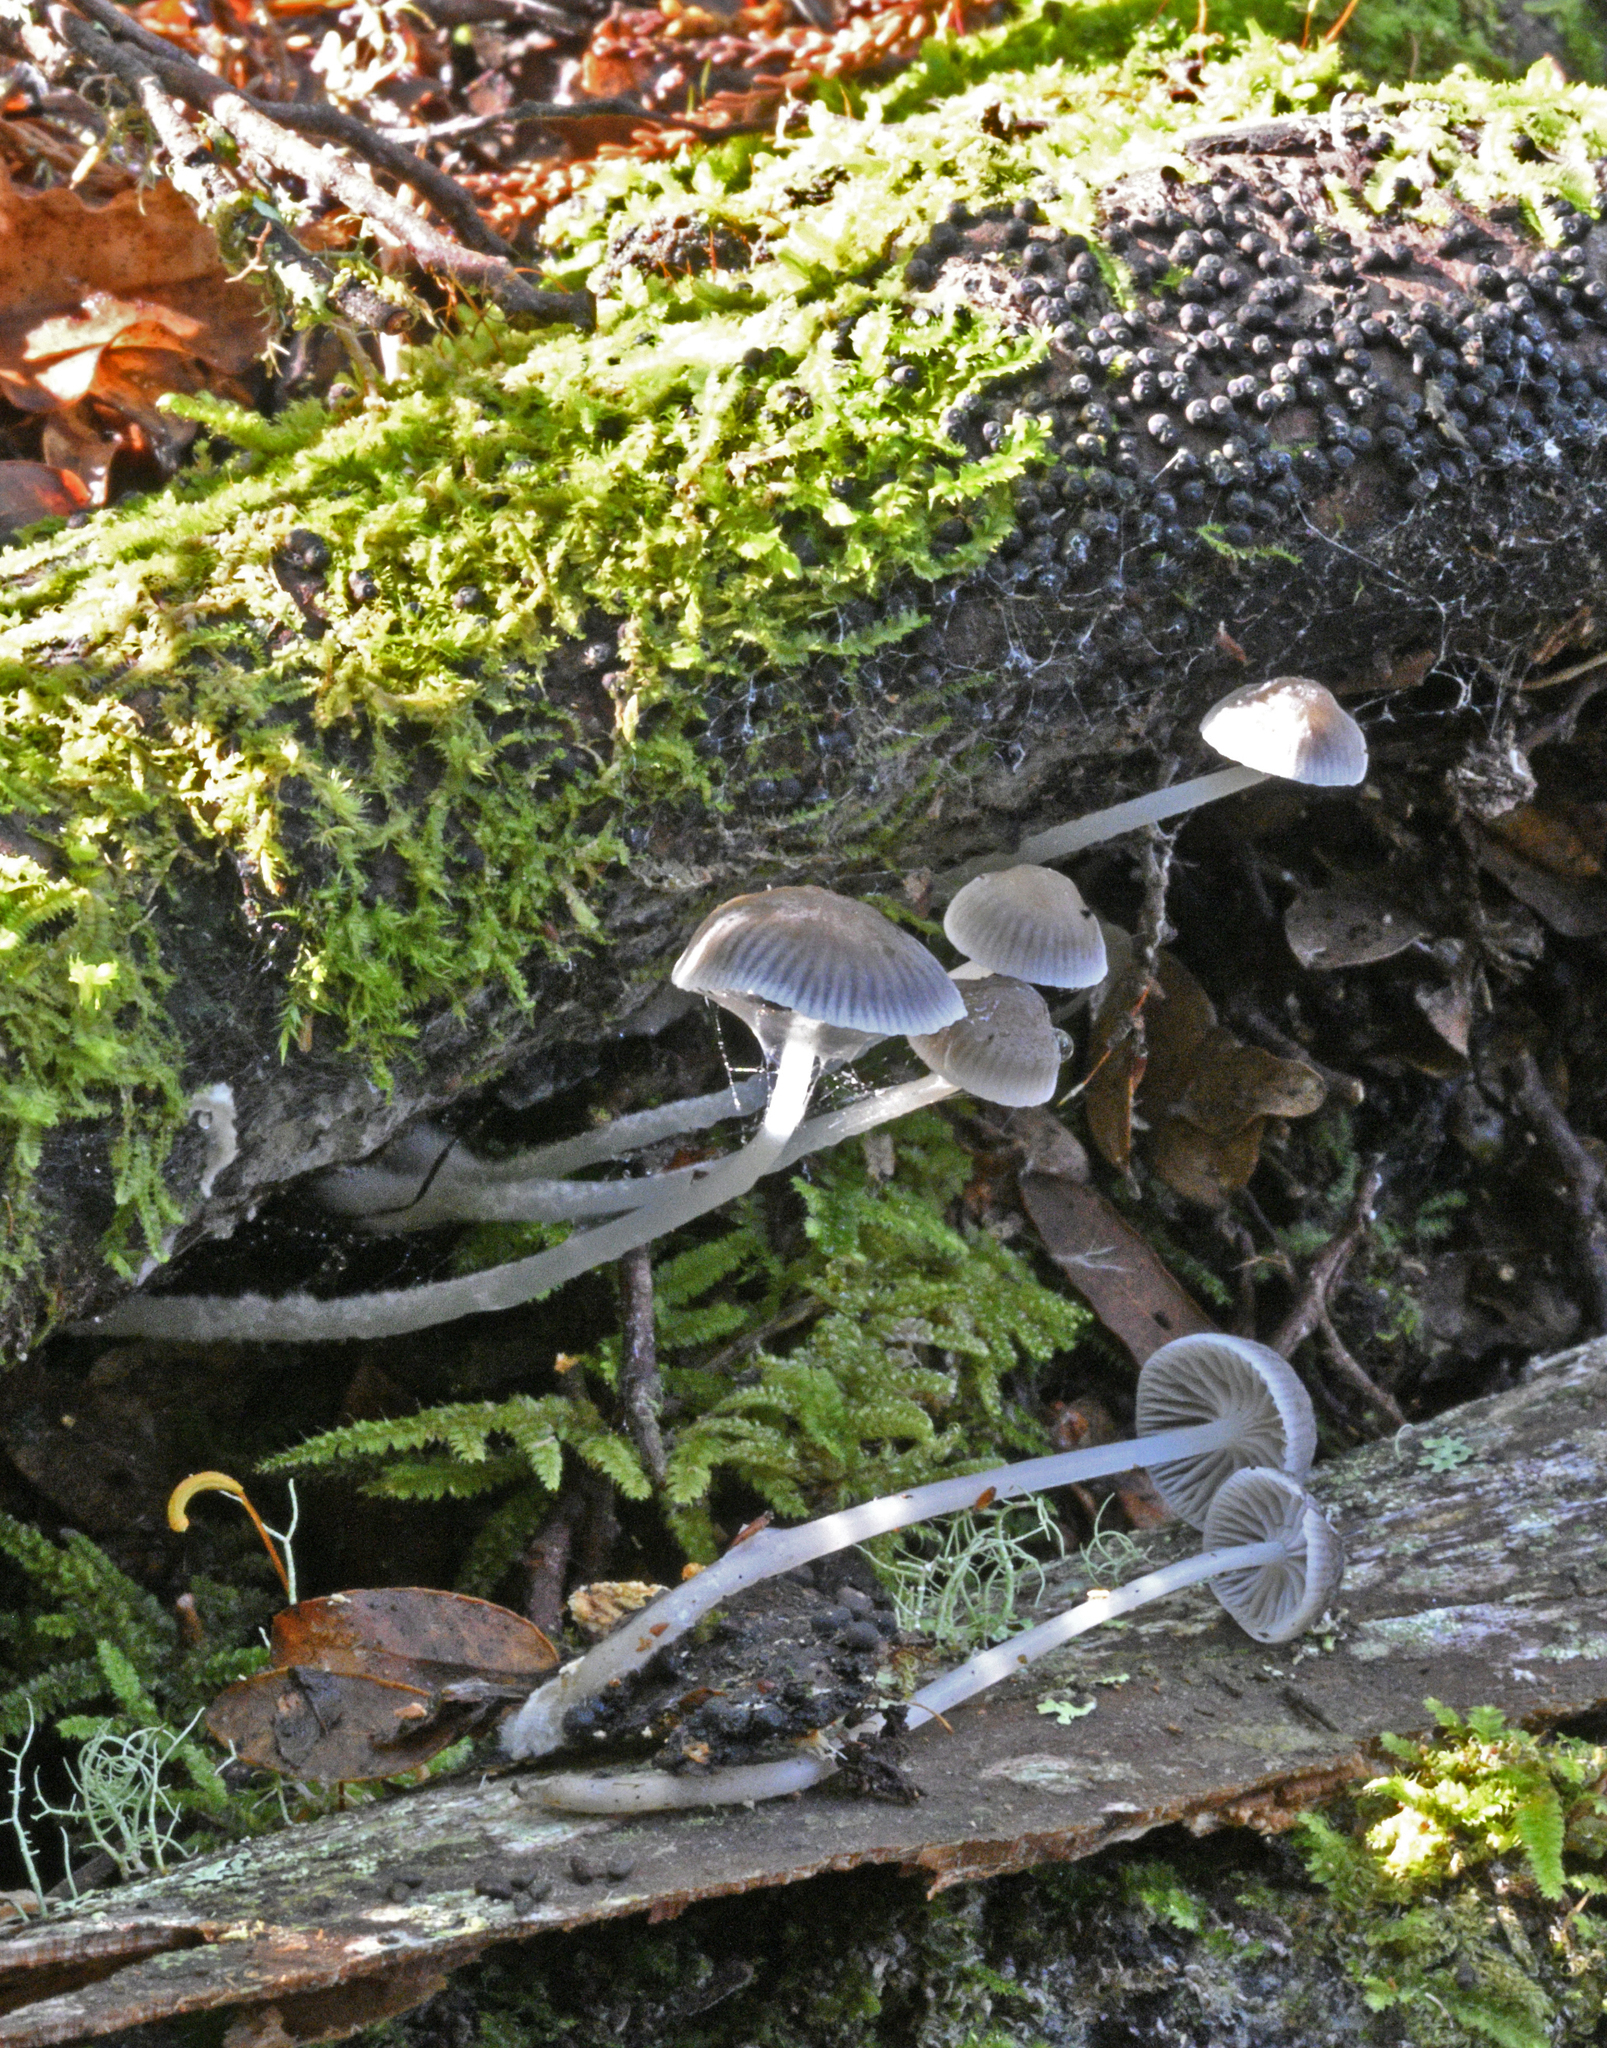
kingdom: Fungi
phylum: Basidiomycota
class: Agaricomycetes
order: Agaricales
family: Mycenaceae
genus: Mycena
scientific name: Mycena
